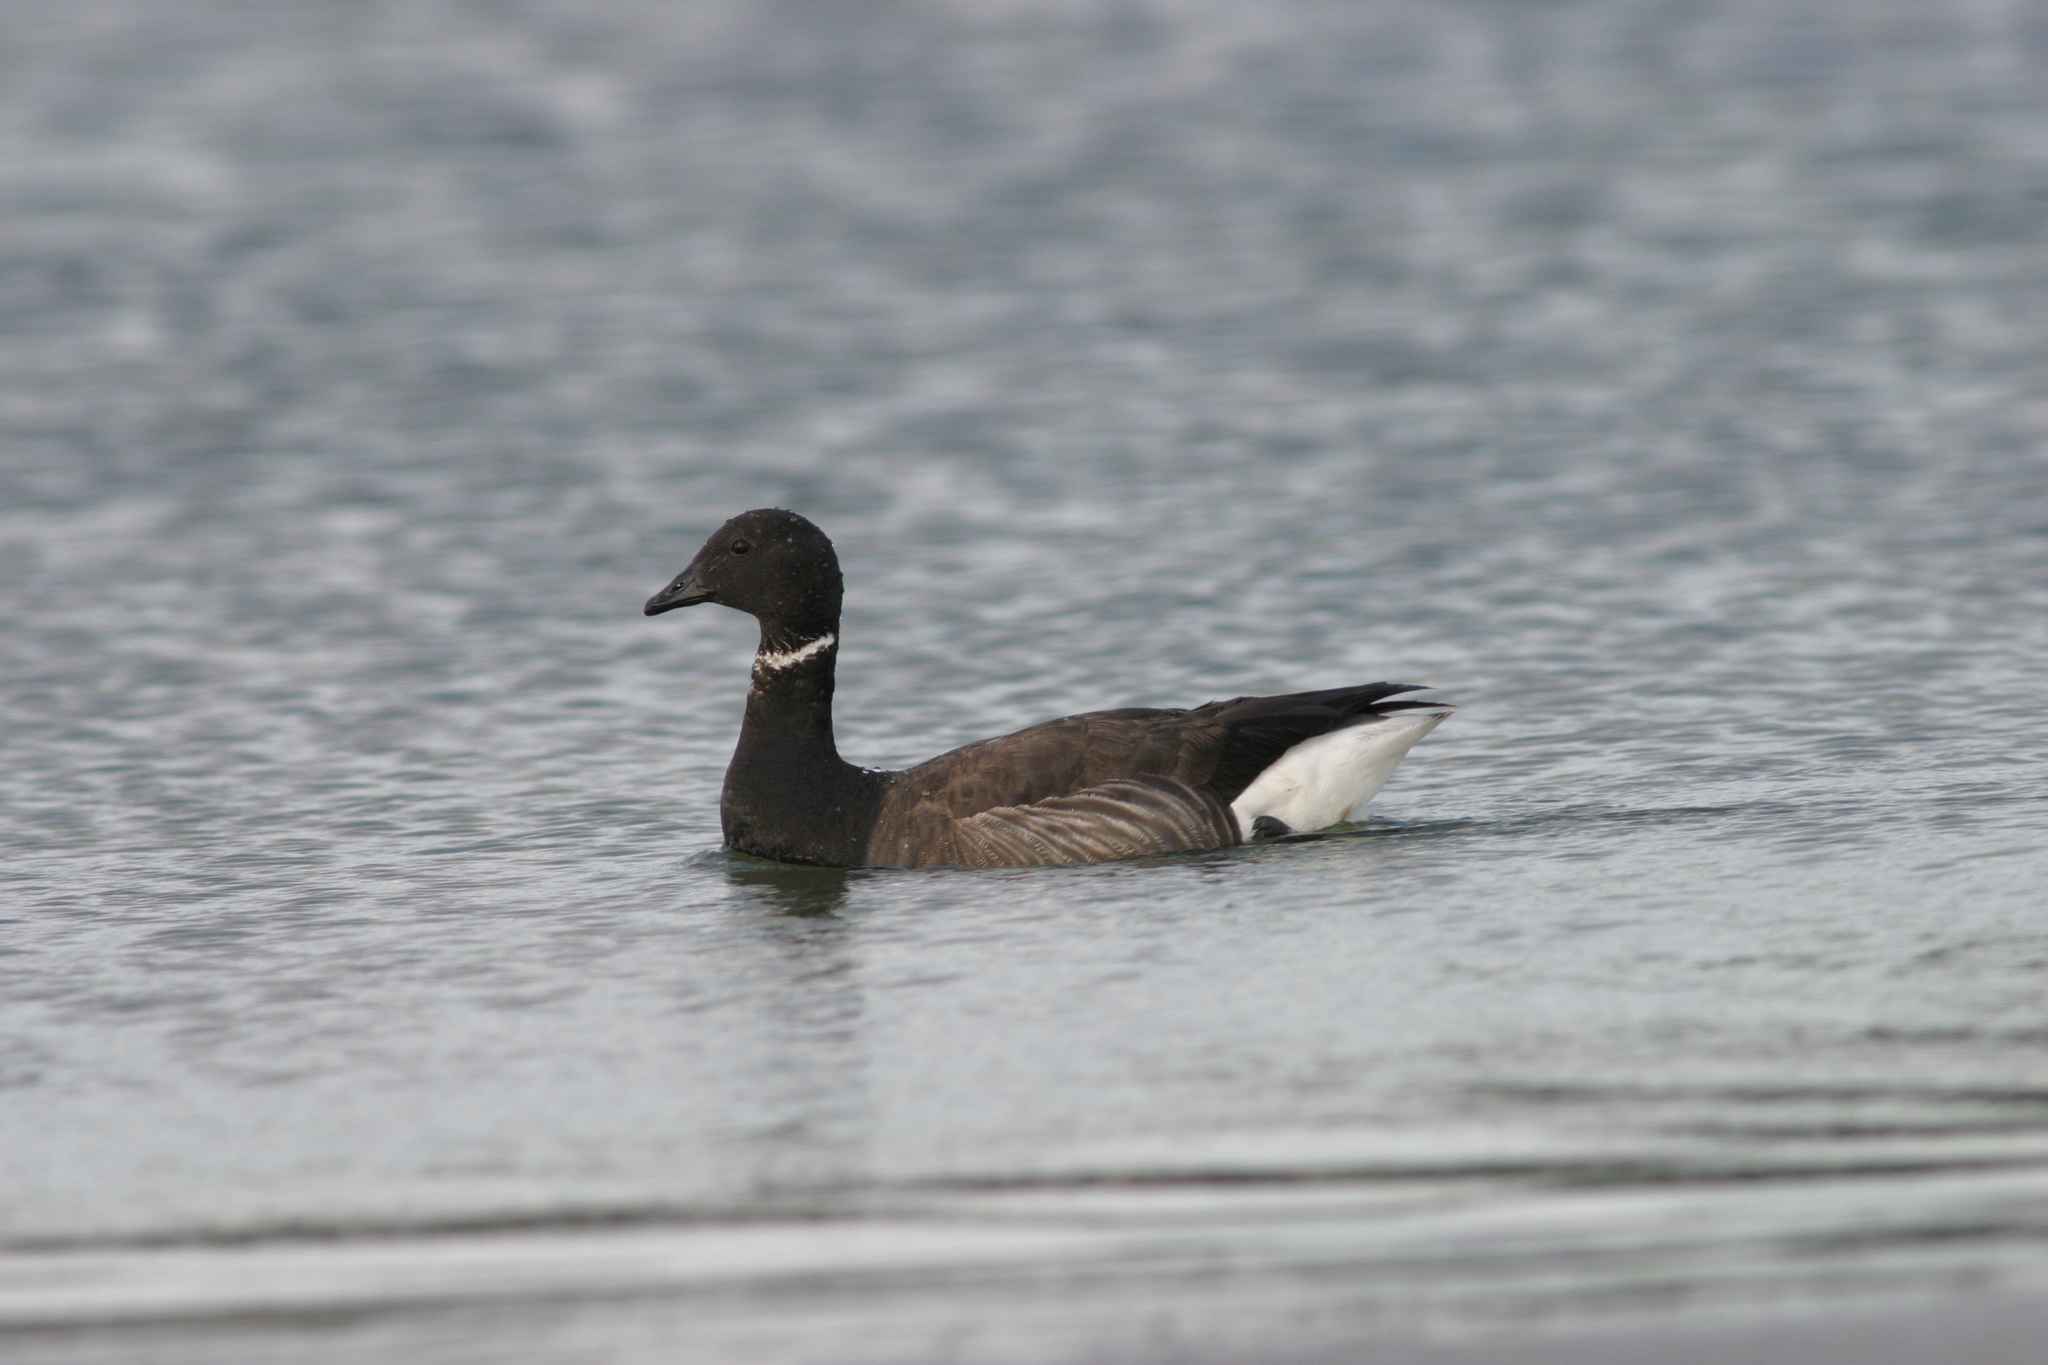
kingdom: Animalia
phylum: Chordata
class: Aves
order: Anseriformes
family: Anatidae
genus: Branta
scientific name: Branta bernicla
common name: Brant goose
